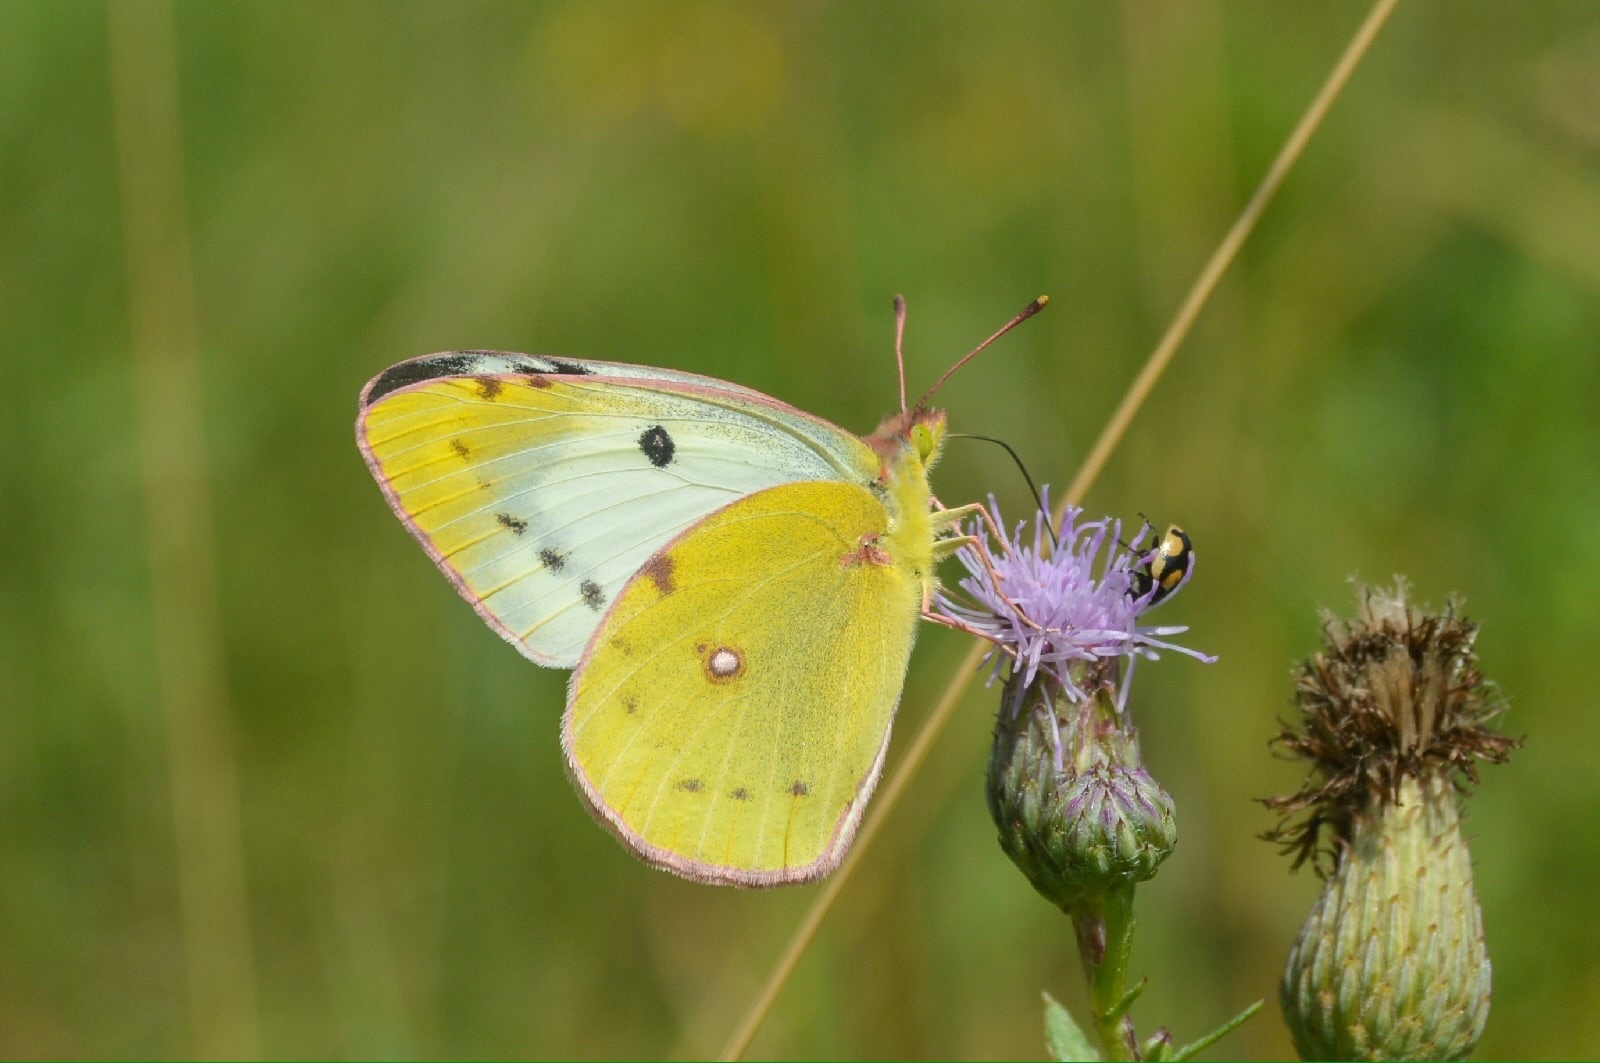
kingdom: Animalia
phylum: Arthropoda
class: Insecta
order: Lepidoptera
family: Pieridae
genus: Colias
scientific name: Colias hyale
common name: Pale clouded yellow
